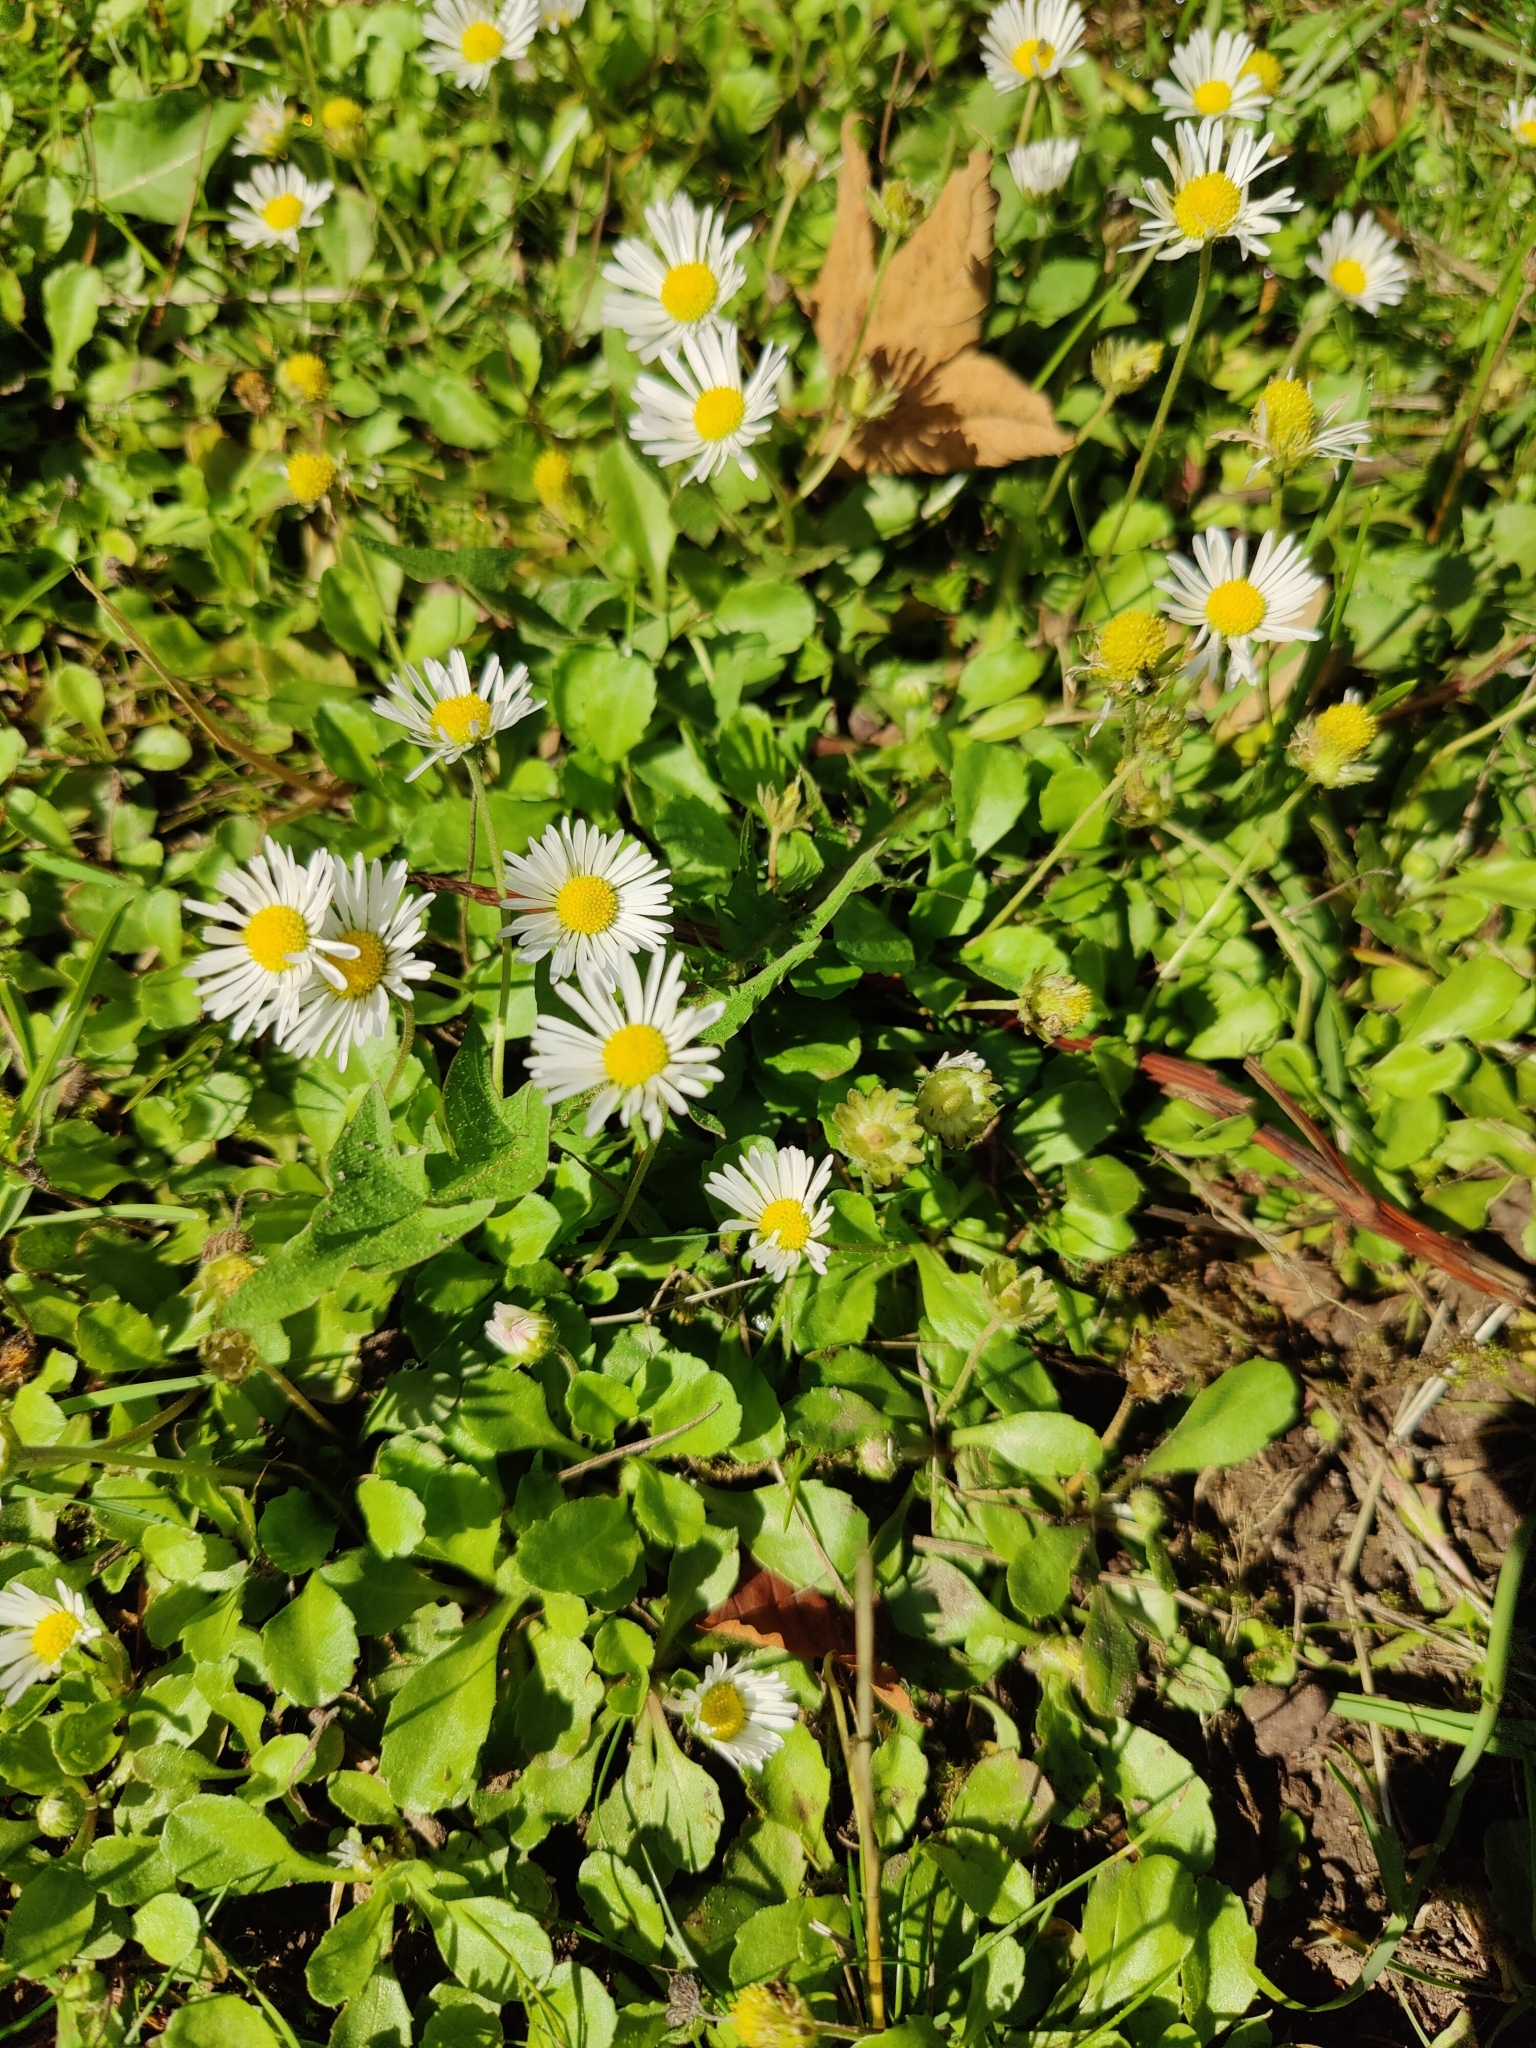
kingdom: Plantae
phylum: Tracheophyta
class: Magnoliopsida
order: Asterales
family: Asteraceae
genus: Bellis
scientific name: Bellis perennis
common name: Lawndaisy
